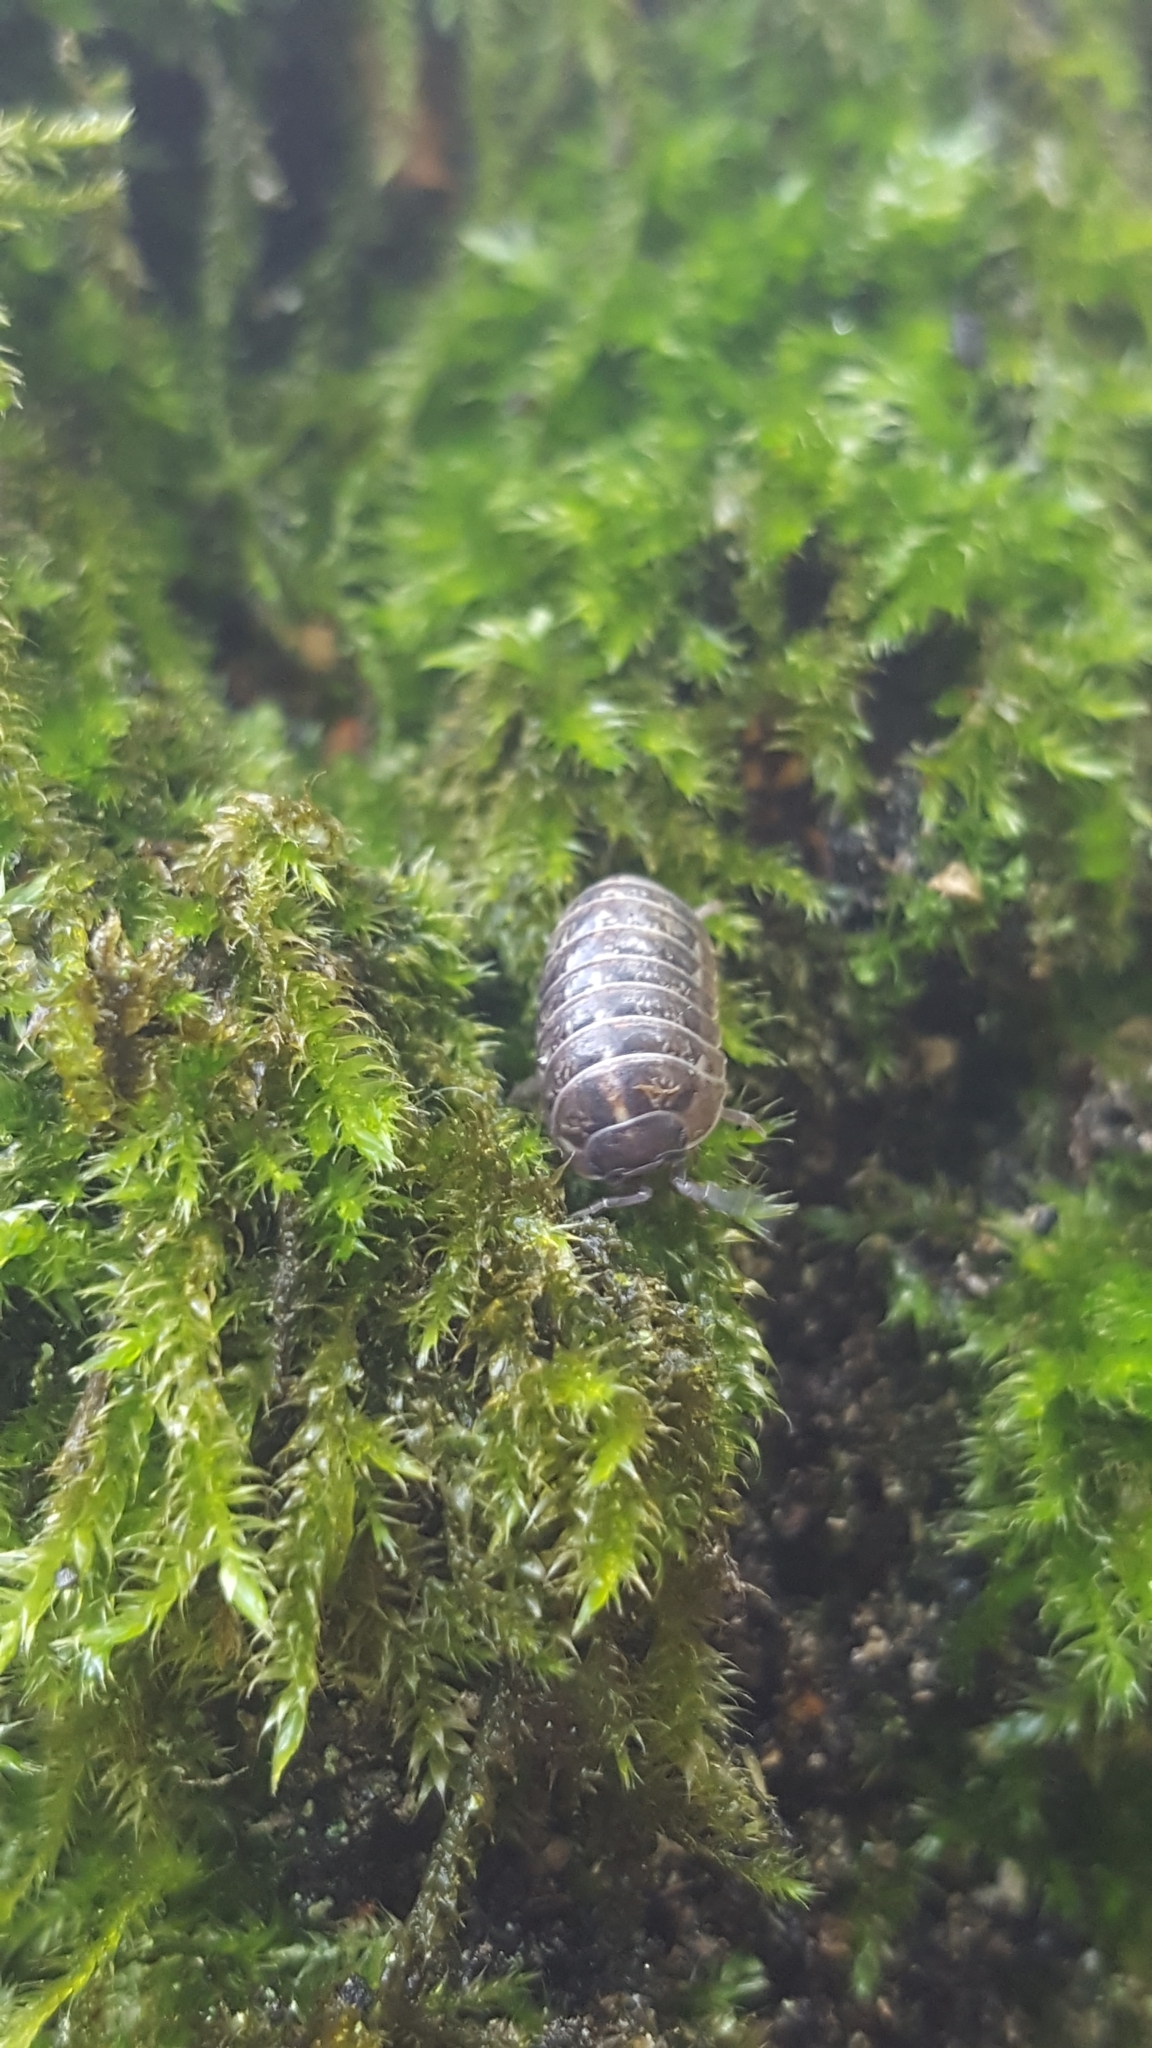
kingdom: Animalia
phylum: Arthropoda
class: Malacostraca
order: Isopoda
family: Armadillidiidae
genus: Armadillidium
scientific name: Armadillidium vulgare
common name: Common pill woodlouse
